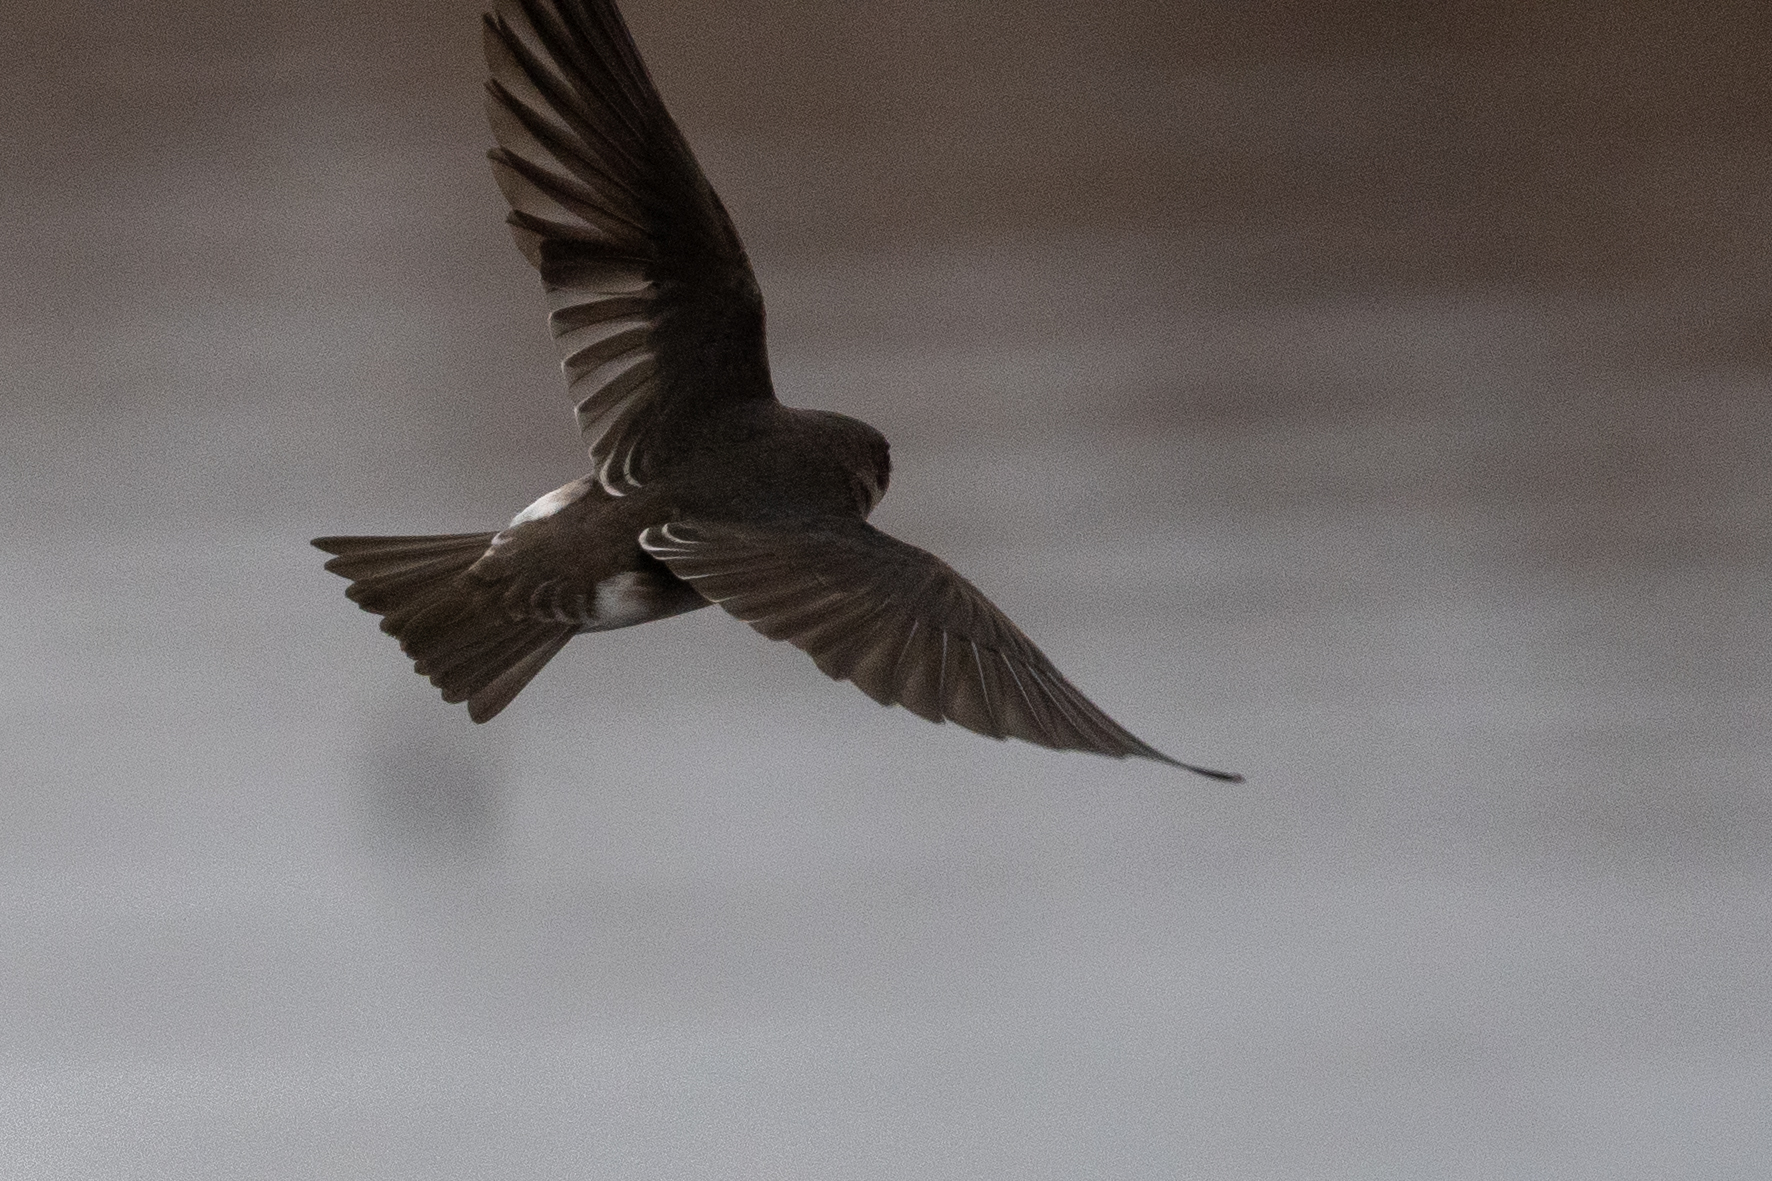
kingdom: Animalia
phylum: Chordata
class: Aves
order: Passeriformes
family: Hirundinidae
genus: Tachycineta
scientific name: Tachycineta bicolor
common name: Tree swallow
